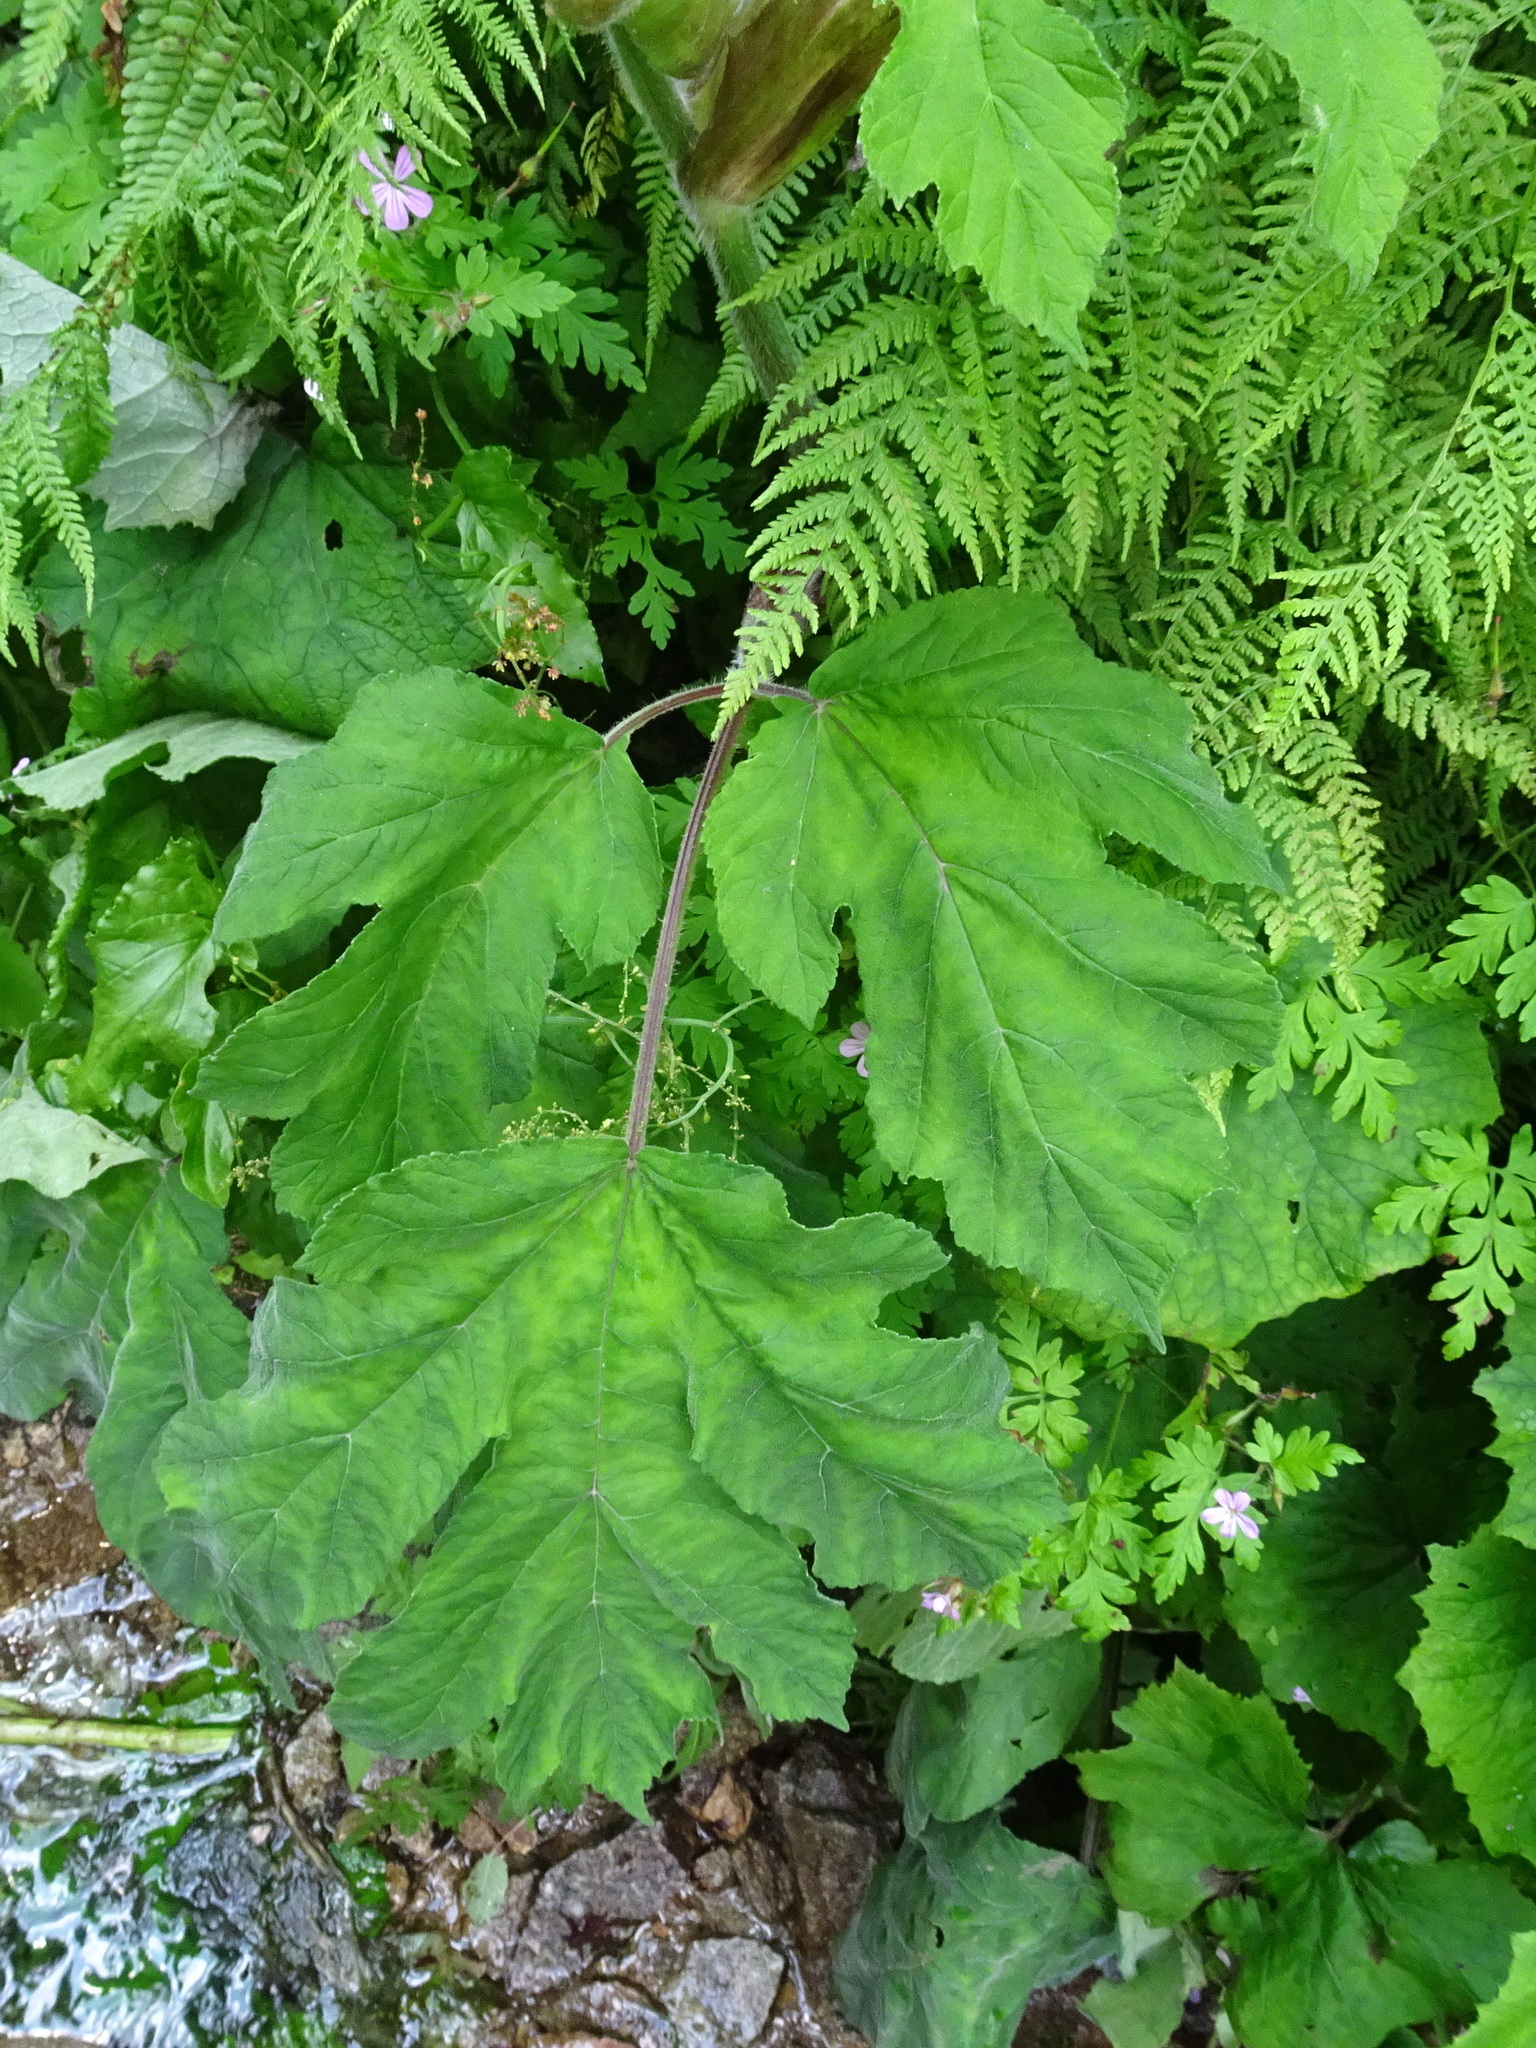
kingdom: Plantae
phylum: Tracheophyta
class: Magnoliopsida
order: Apiales
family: Apiaceae
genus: Heracleum
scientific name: Heracleum sphondylium
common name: Hogweed
